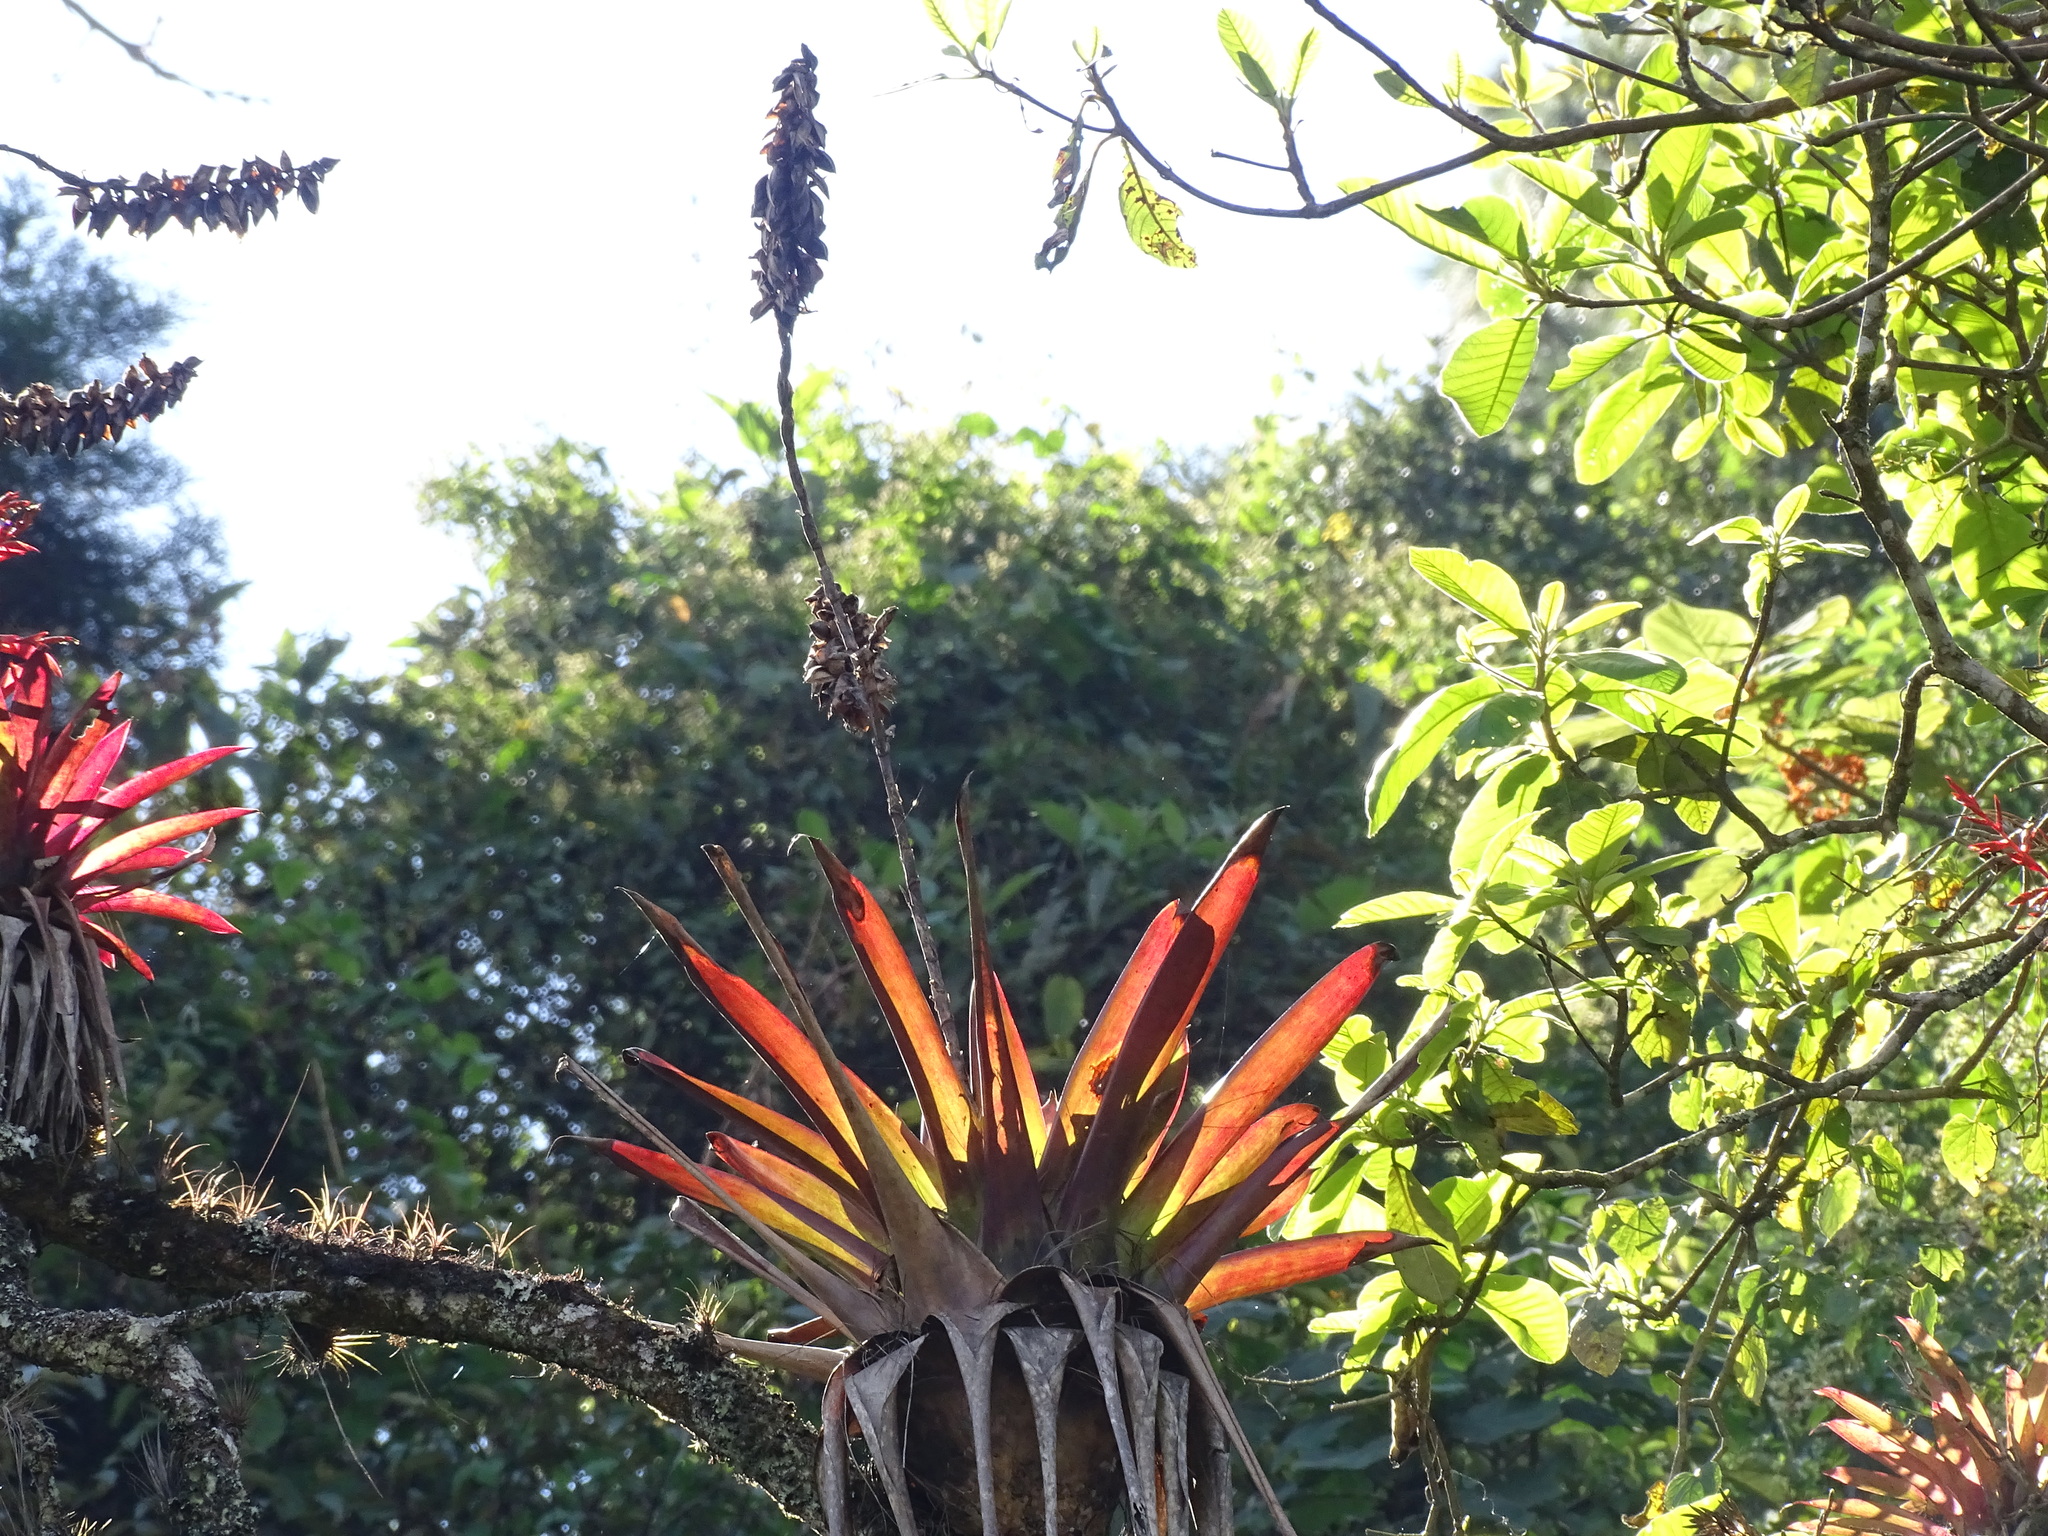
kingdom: Plantae
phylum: Tracheophyta
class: Liliopsida
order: Poales
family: Bromeliaceae
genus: Werauhia
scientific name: Werauhia werckleana
